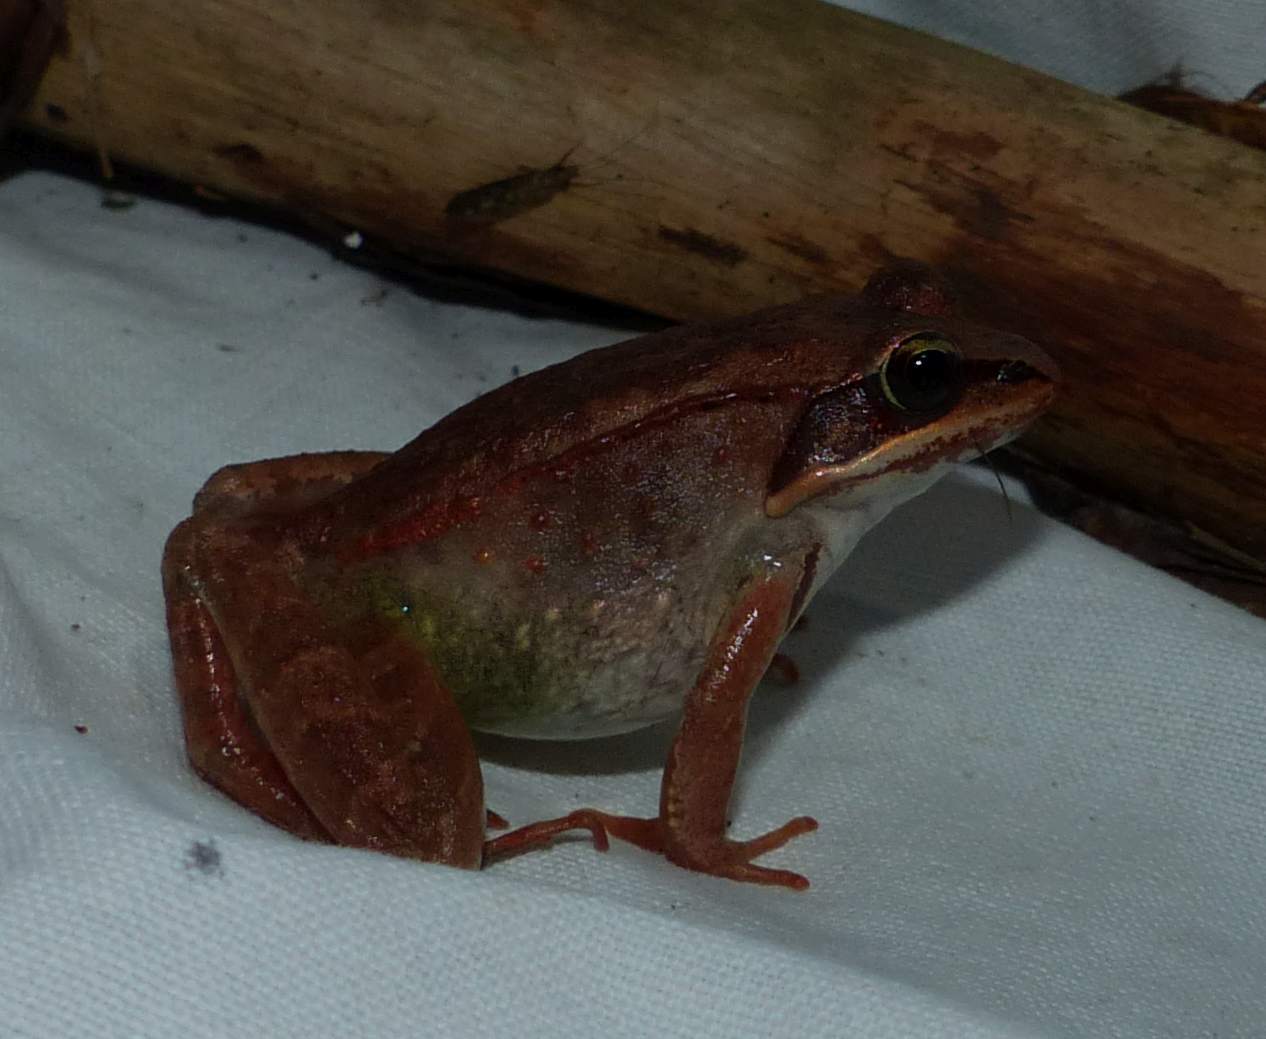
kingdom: Animalia
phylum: Chordata
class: Amphibia
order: Anura
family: Ranidae
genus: Lithobates
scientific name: Lithobates sylvaticus
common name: Wood frog
